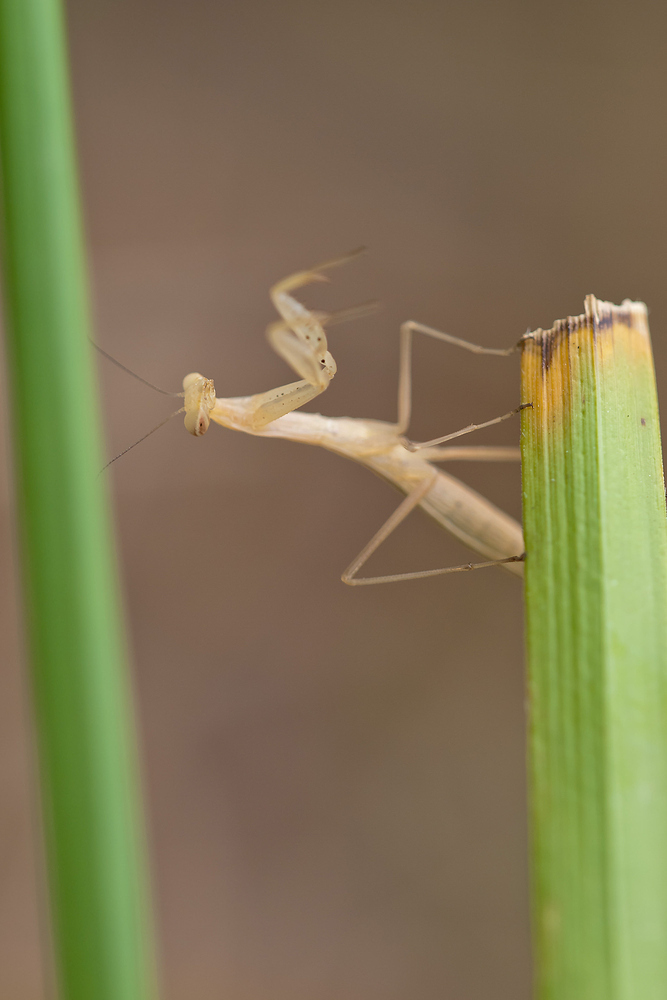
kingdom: Animalia
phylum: Arthropoda
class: Insecta
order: Mantodea
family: Mantidae
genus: Mantis
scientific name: Mantis religiosa
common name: Praying mantis
